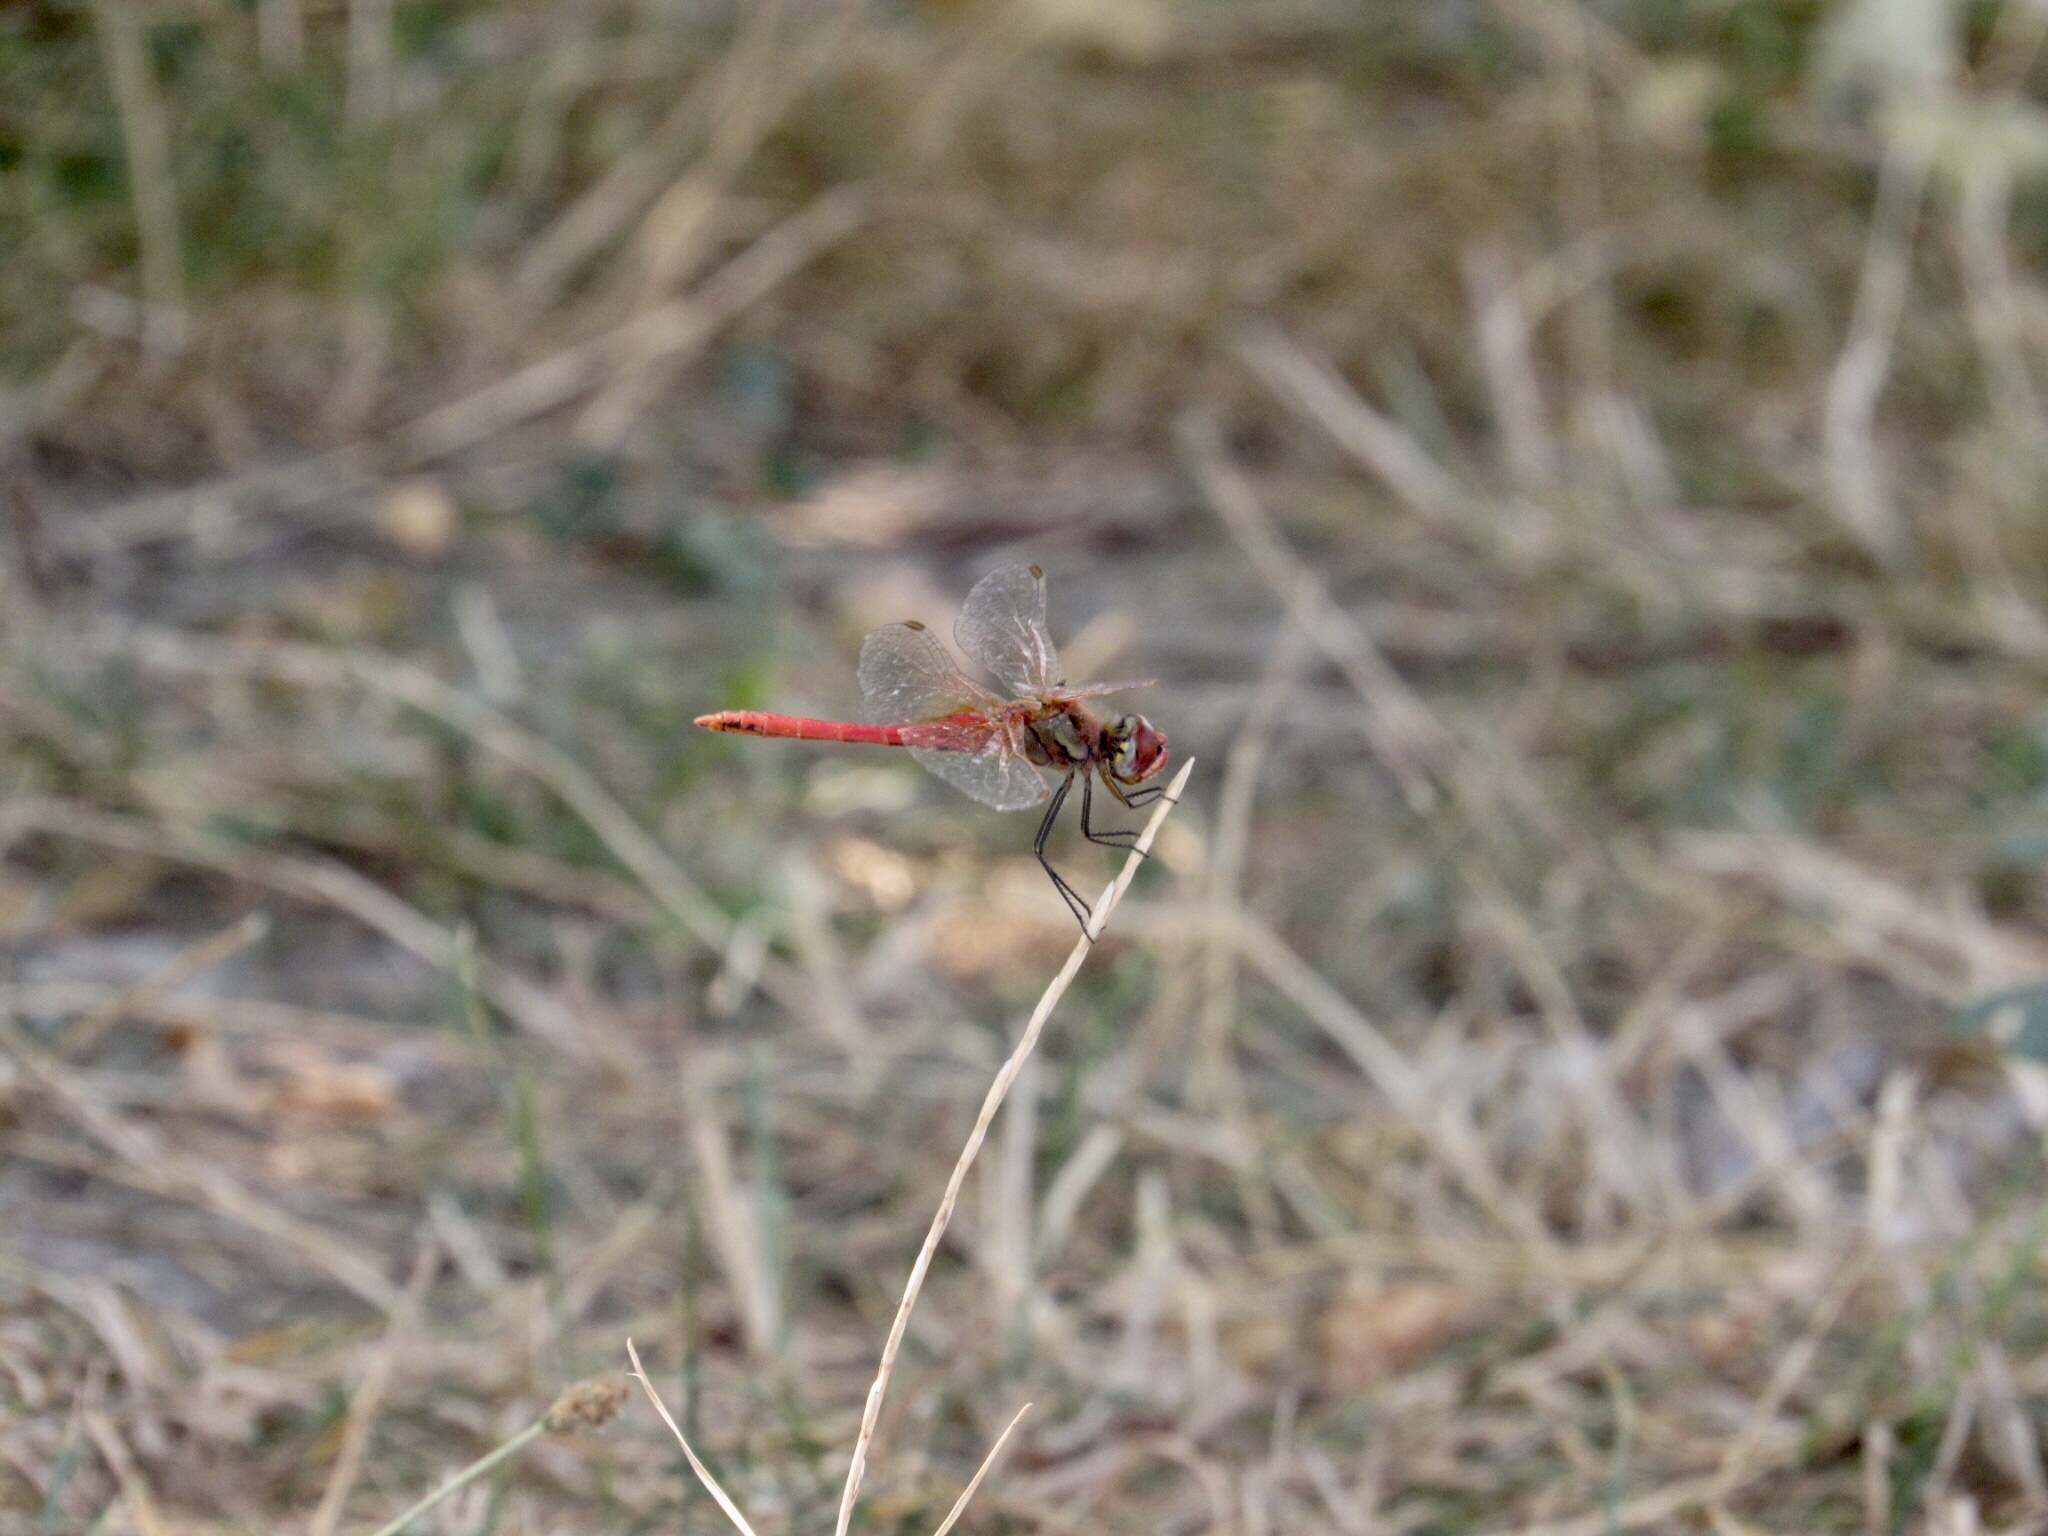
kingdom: Animalia
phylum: Arthropoda
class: Insecta
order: Odonata
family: Libellulidae
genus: Sympetrum
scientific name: Sympetrum fonscolombii
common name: Red-veined darter
